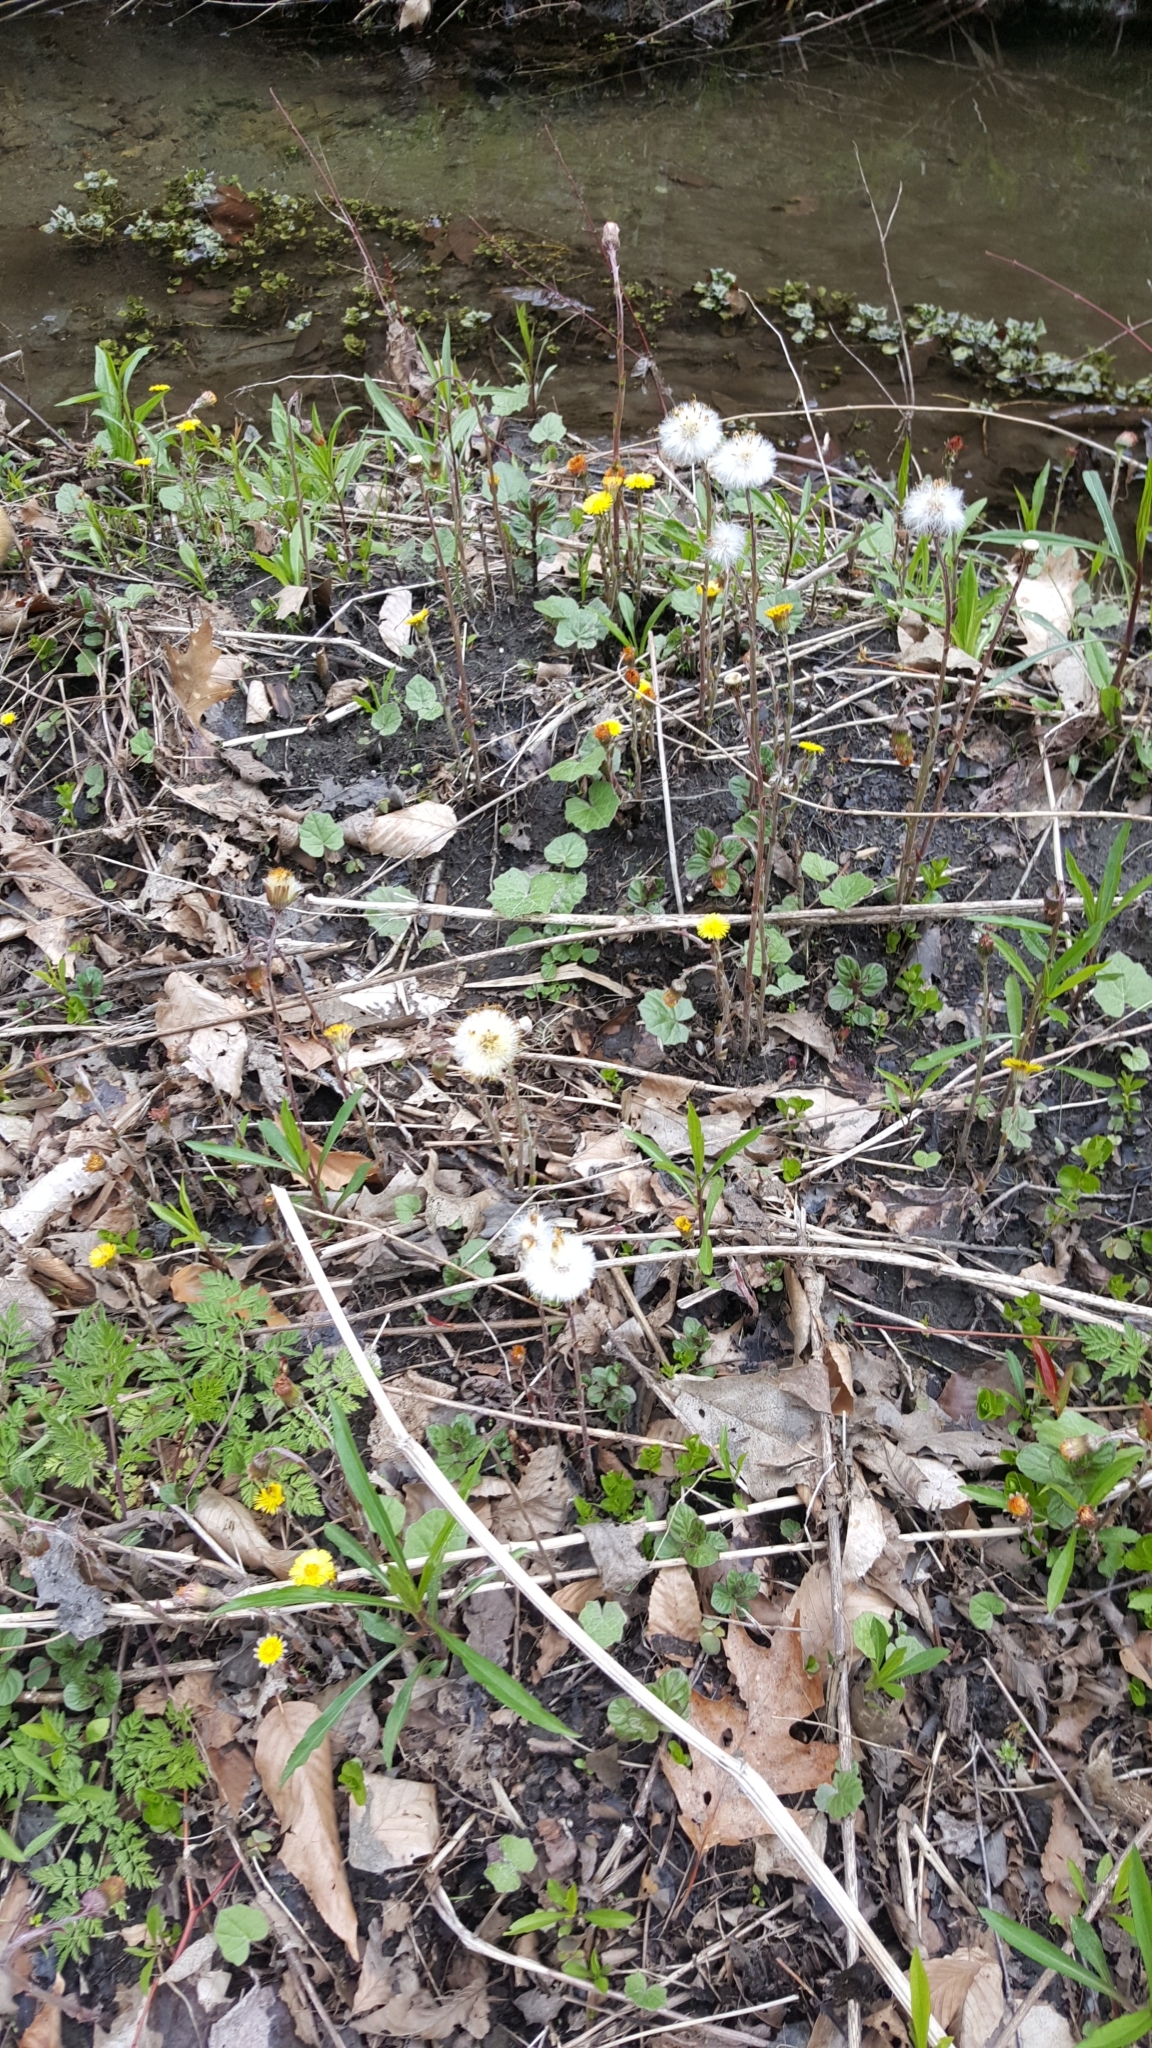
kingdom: Plantae
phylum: Tracheophyta
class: Magnoliopsida
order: Asterales
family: Asteraceae
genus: Tussilago
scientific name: Tussilago farfara
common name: Coltsfoot
